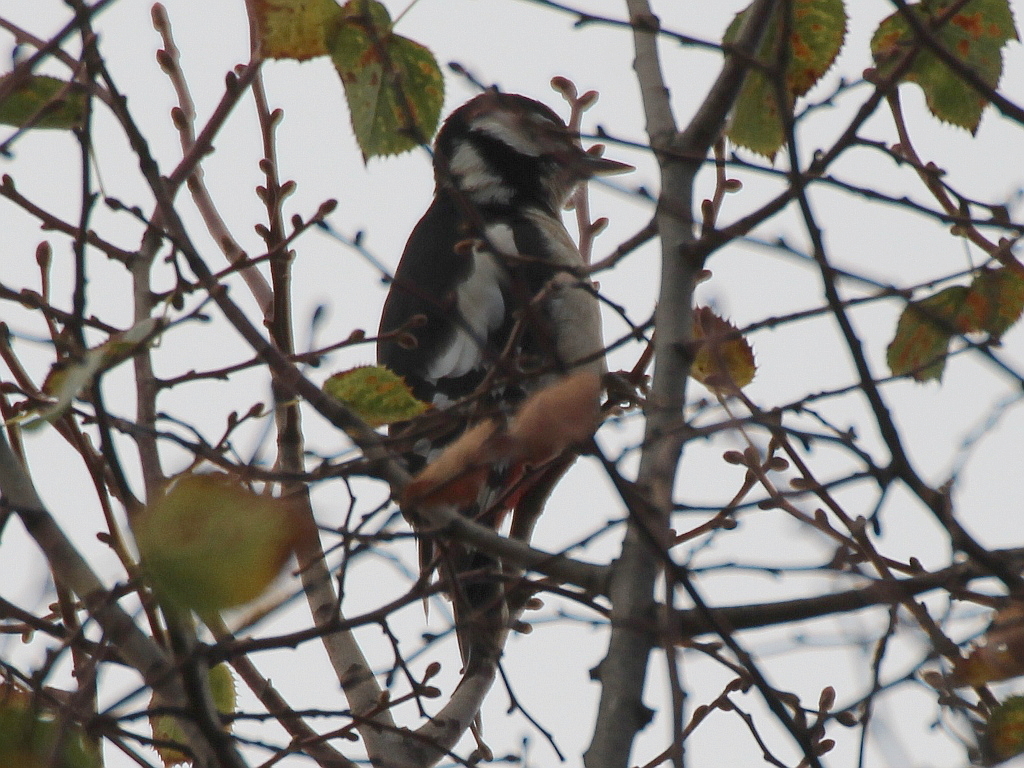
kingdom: Animalia
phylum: Chordata
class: Aves
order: Piciformes
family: Picidae
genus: Dendrocopos
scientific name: Dendrocopos major
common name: Great spotted woodpecker
